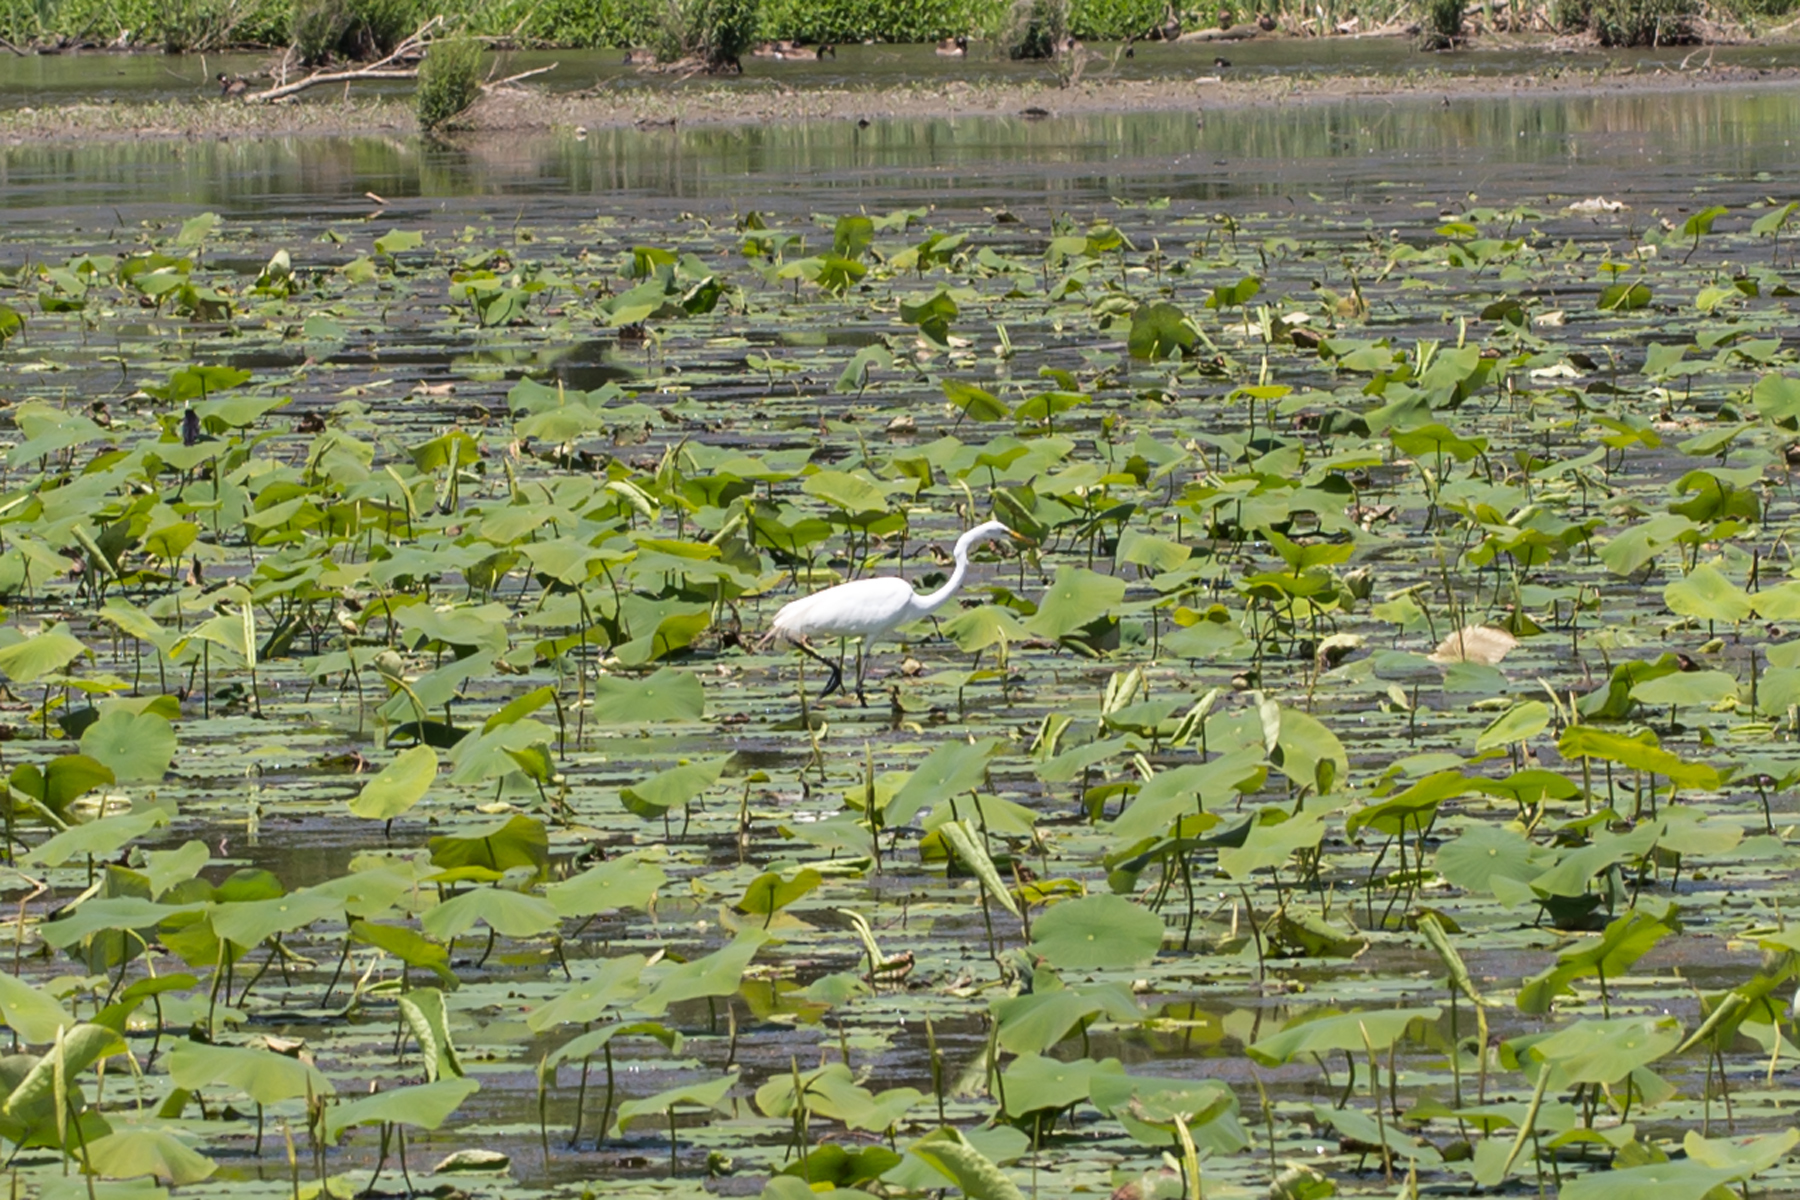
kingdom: Animalia
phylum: Chordata
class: Aves
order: Pelecaniformes
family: Ardeidae
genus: Ardea
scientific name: Ardea alba
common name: Great egret
